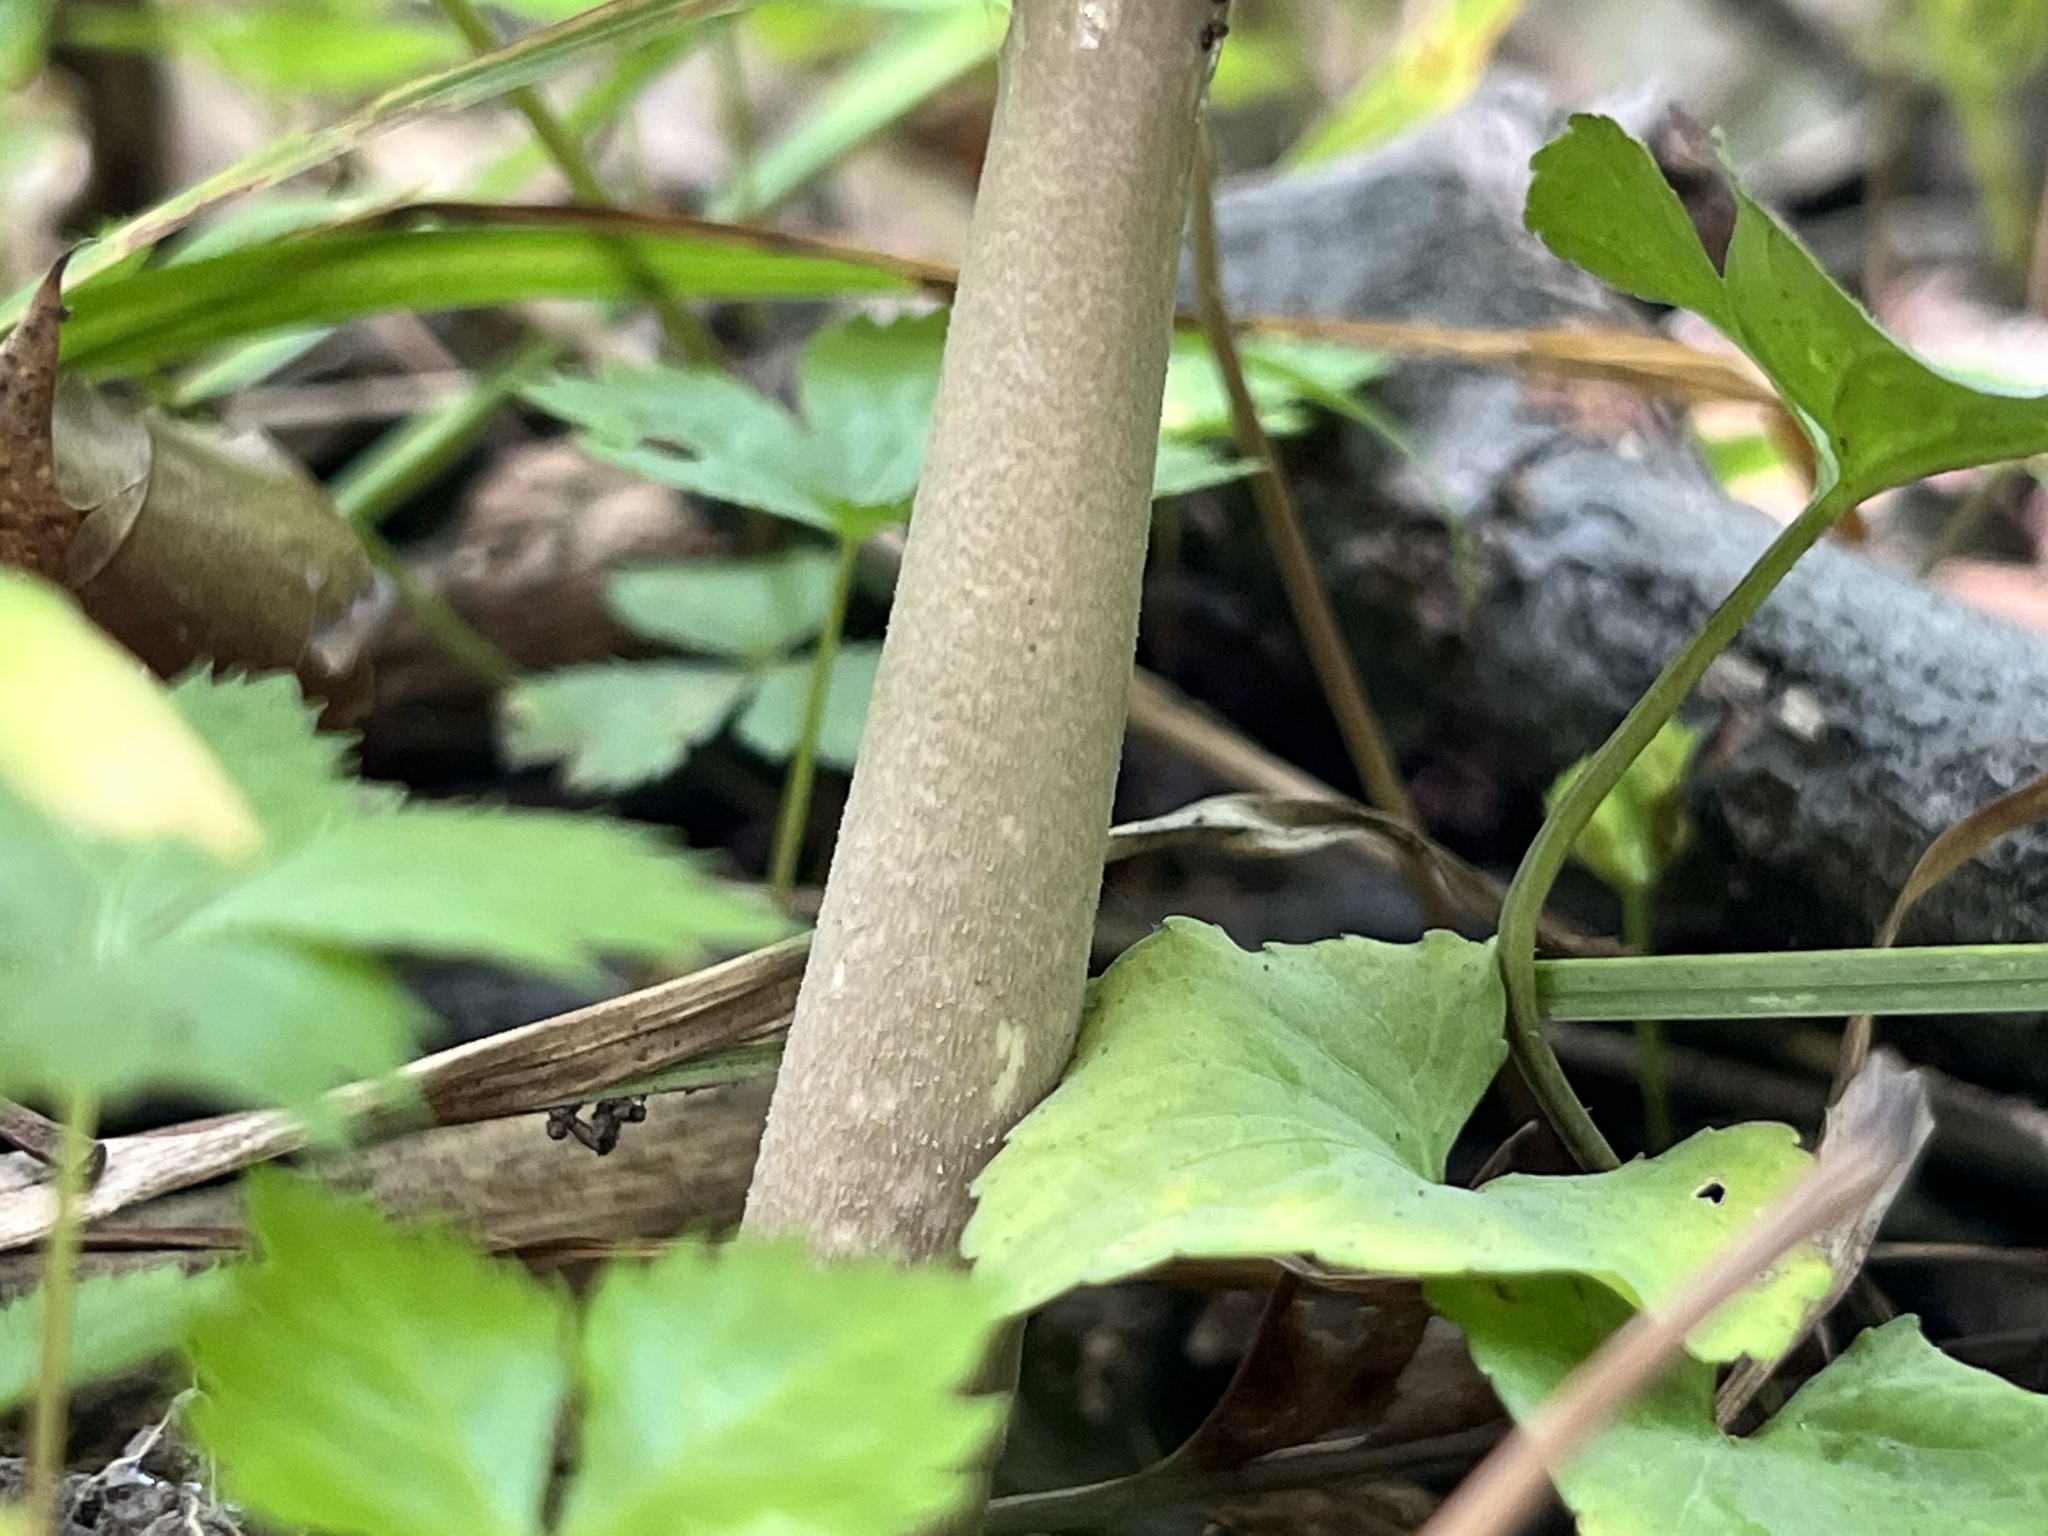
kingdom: Fungi
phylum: Basidiomycota
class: Agaricomycetes
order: Agaricales
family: Amanitaceae
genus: Amanita
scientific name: Amanita vaginata
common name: Grisette
